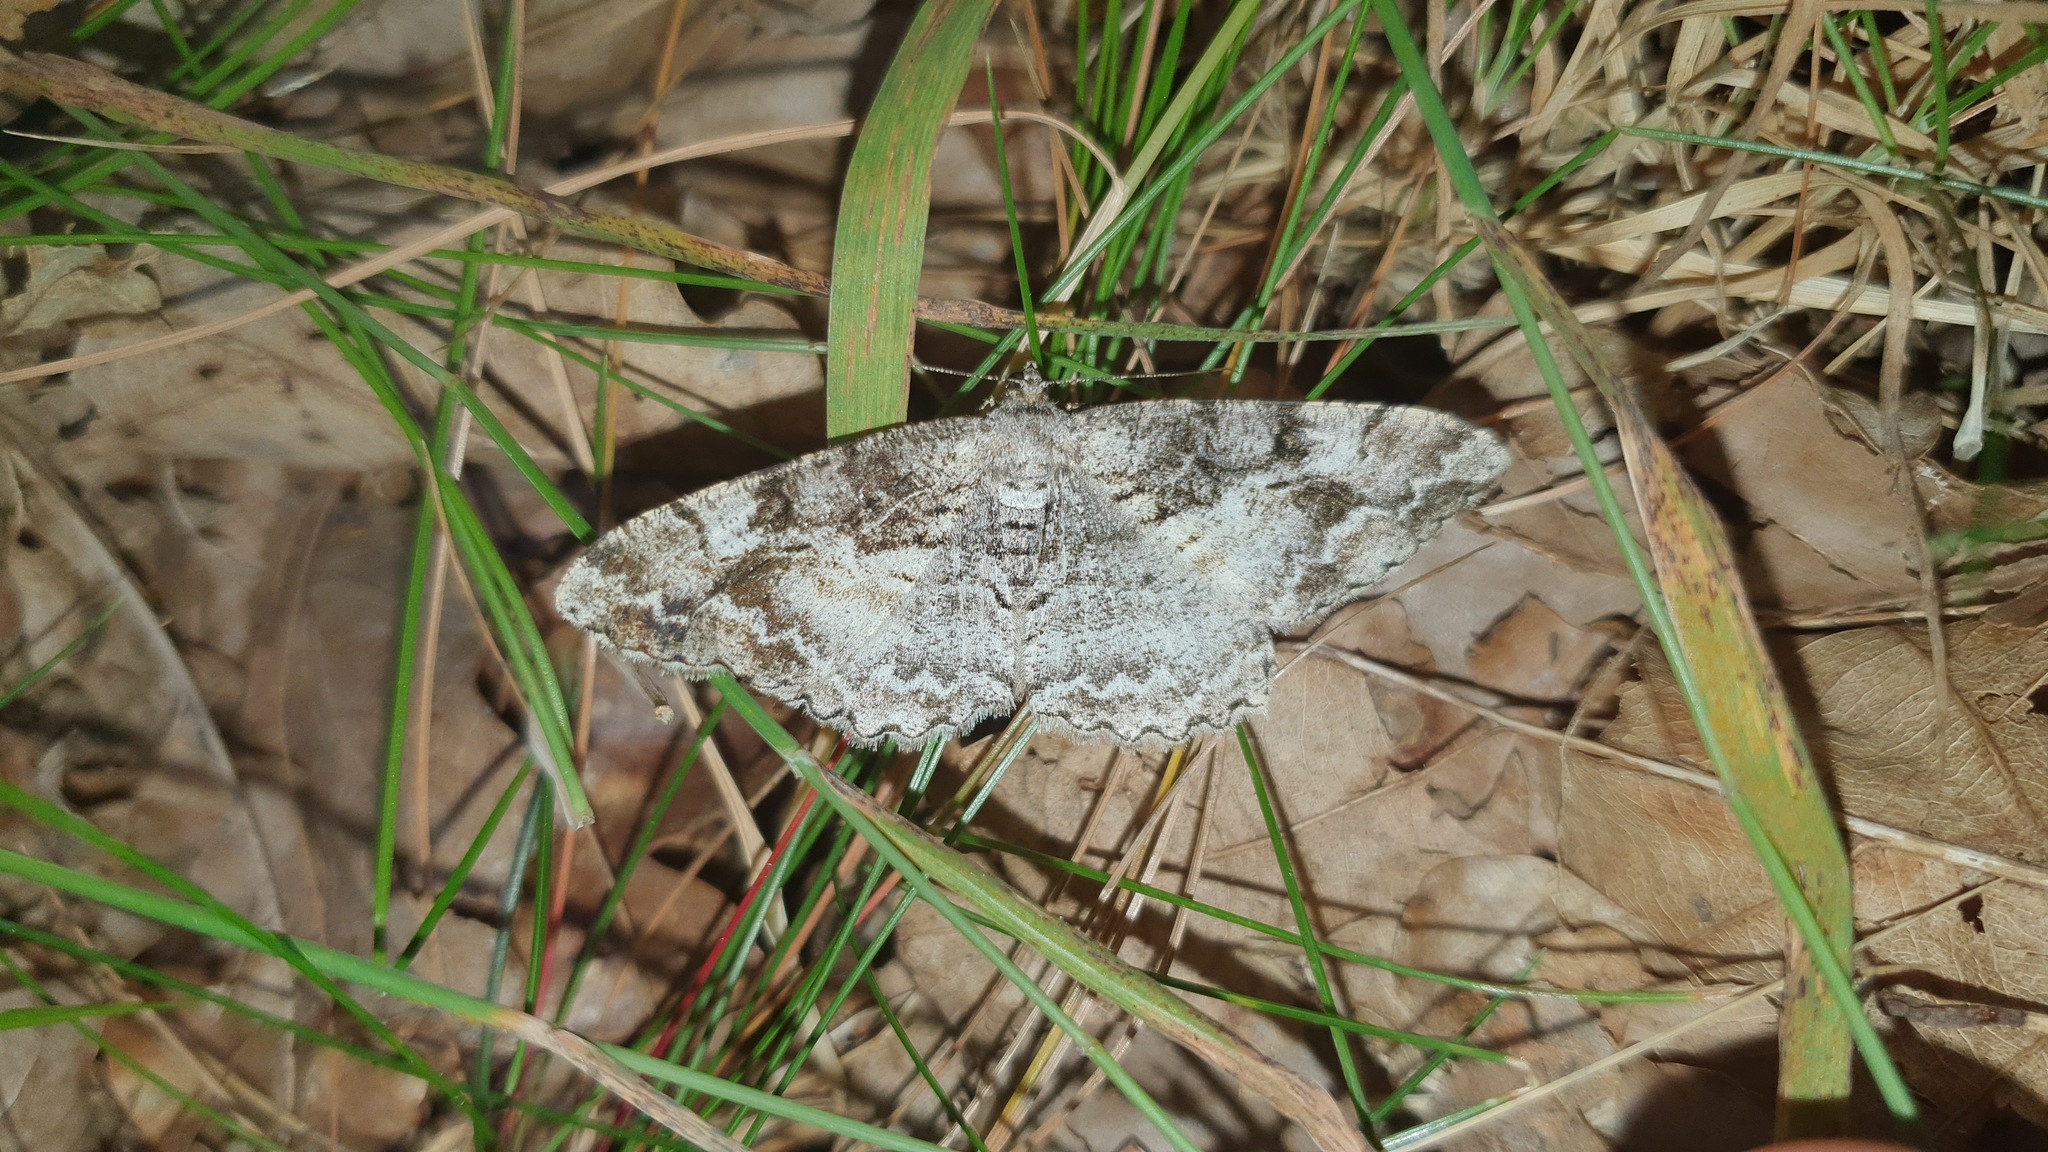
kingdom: Animalia
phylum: Arthropoda
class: Insecta
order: Lepidoptera
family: Geometridae
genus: Alcis
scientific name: Alcis repandata
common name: Mottled beauty
